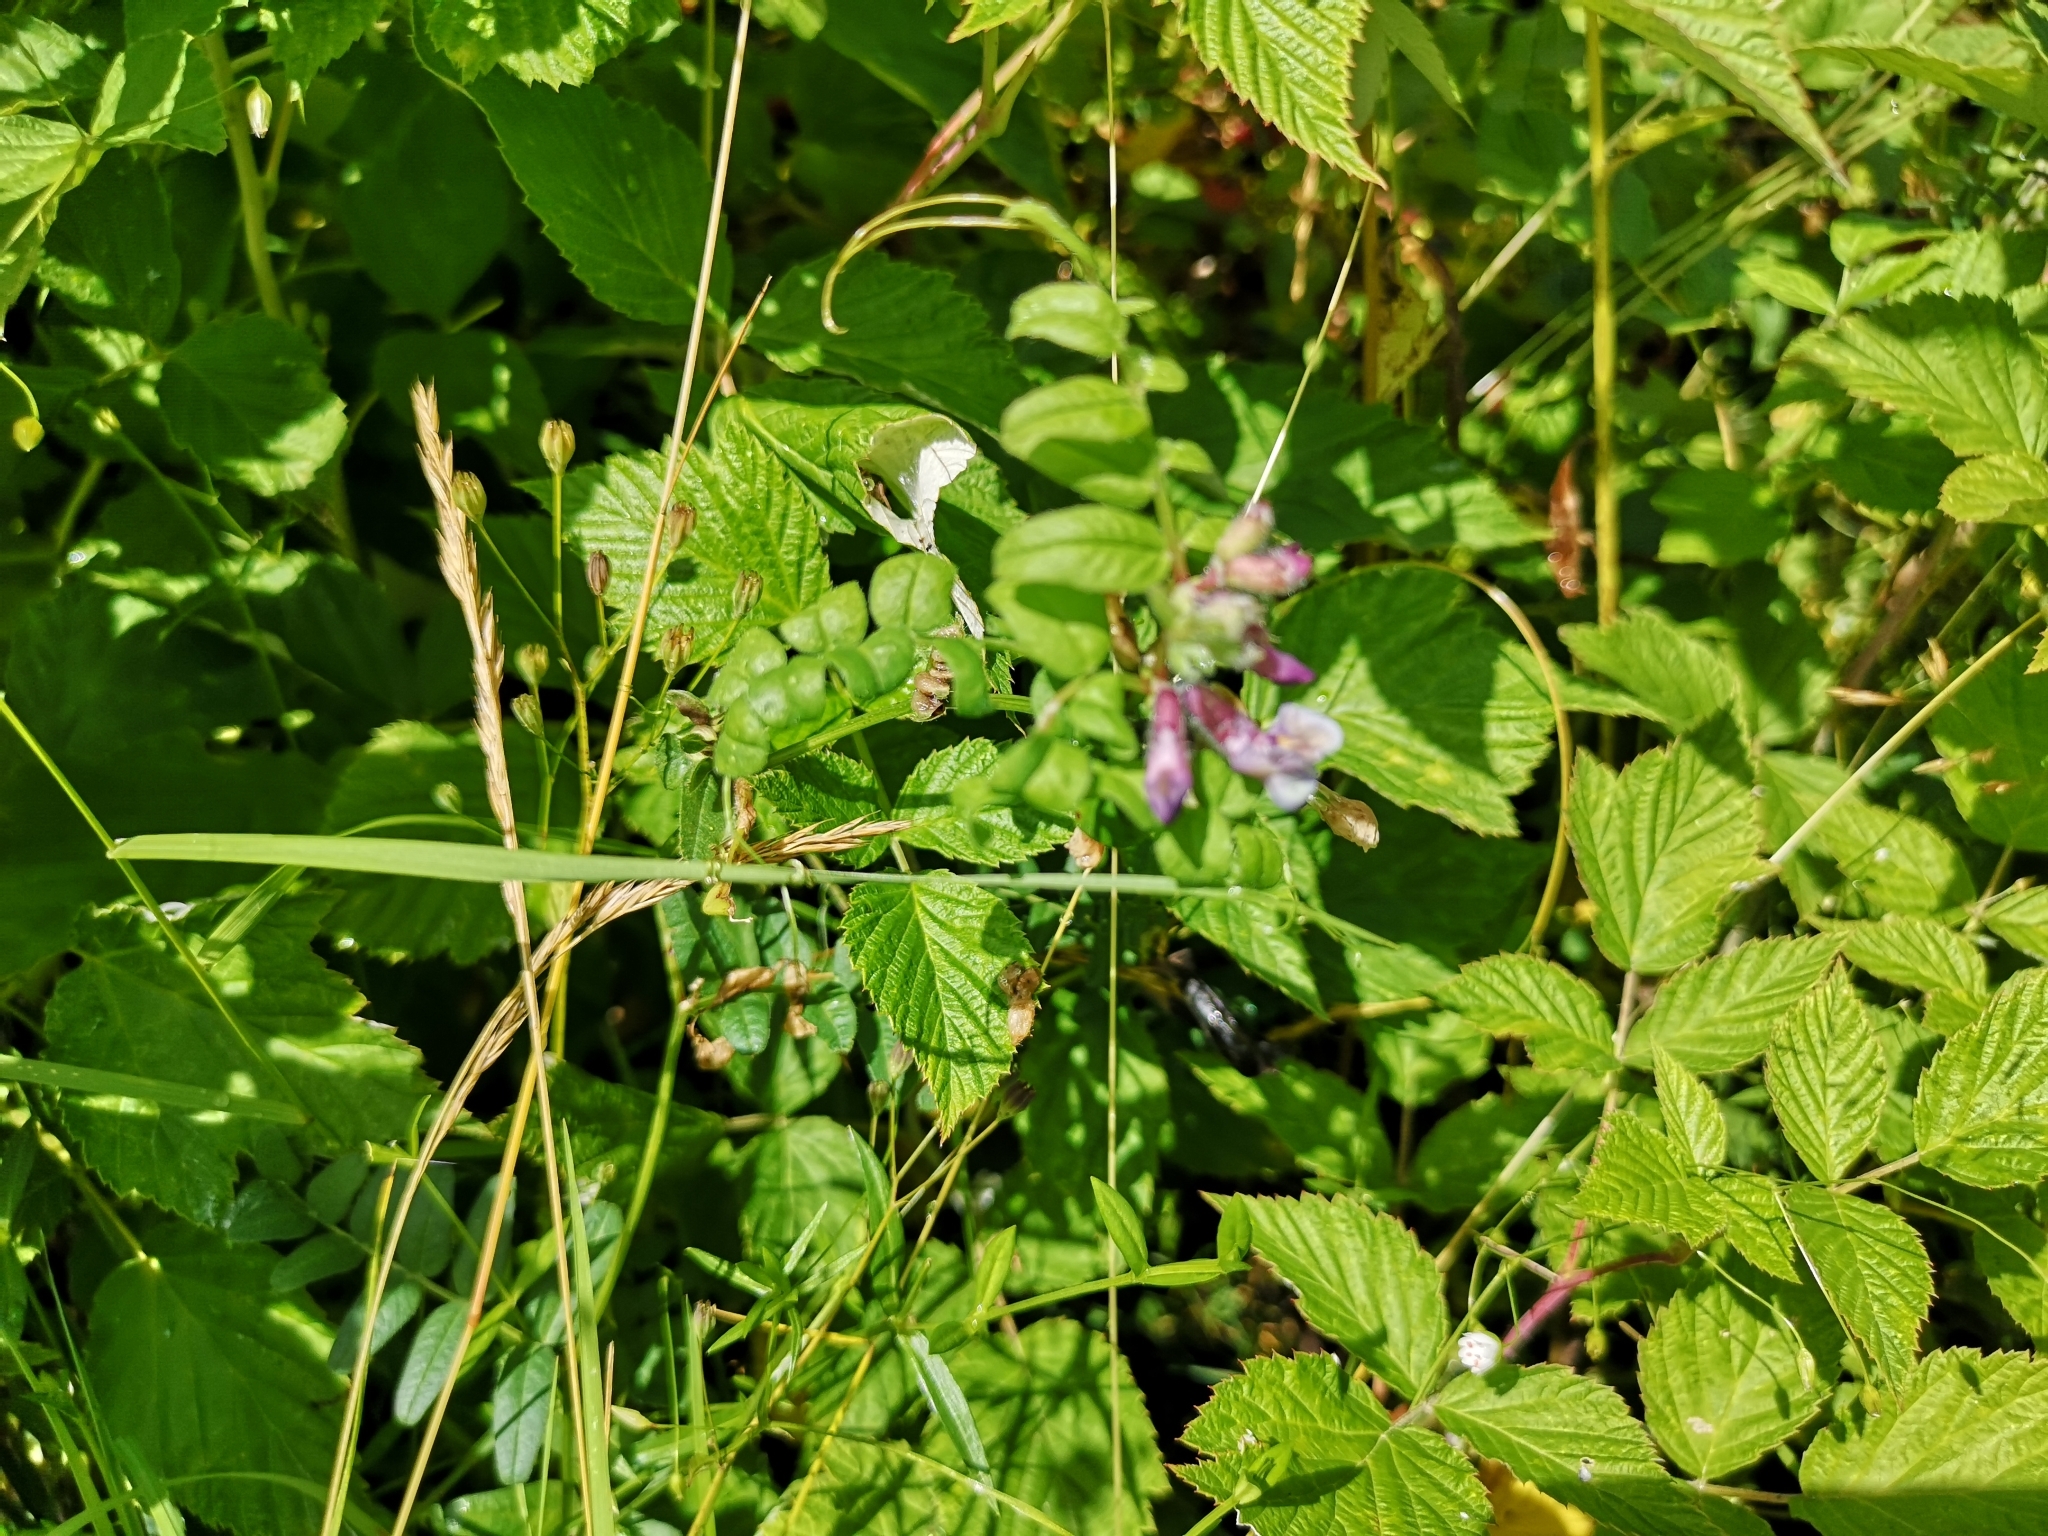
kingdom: Plantae
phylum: Tracheophyta
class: Magnoliopsida
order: Fabales
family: Fabaceae
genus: Vicia
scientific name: Vicia sepium
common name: Bush vetch
